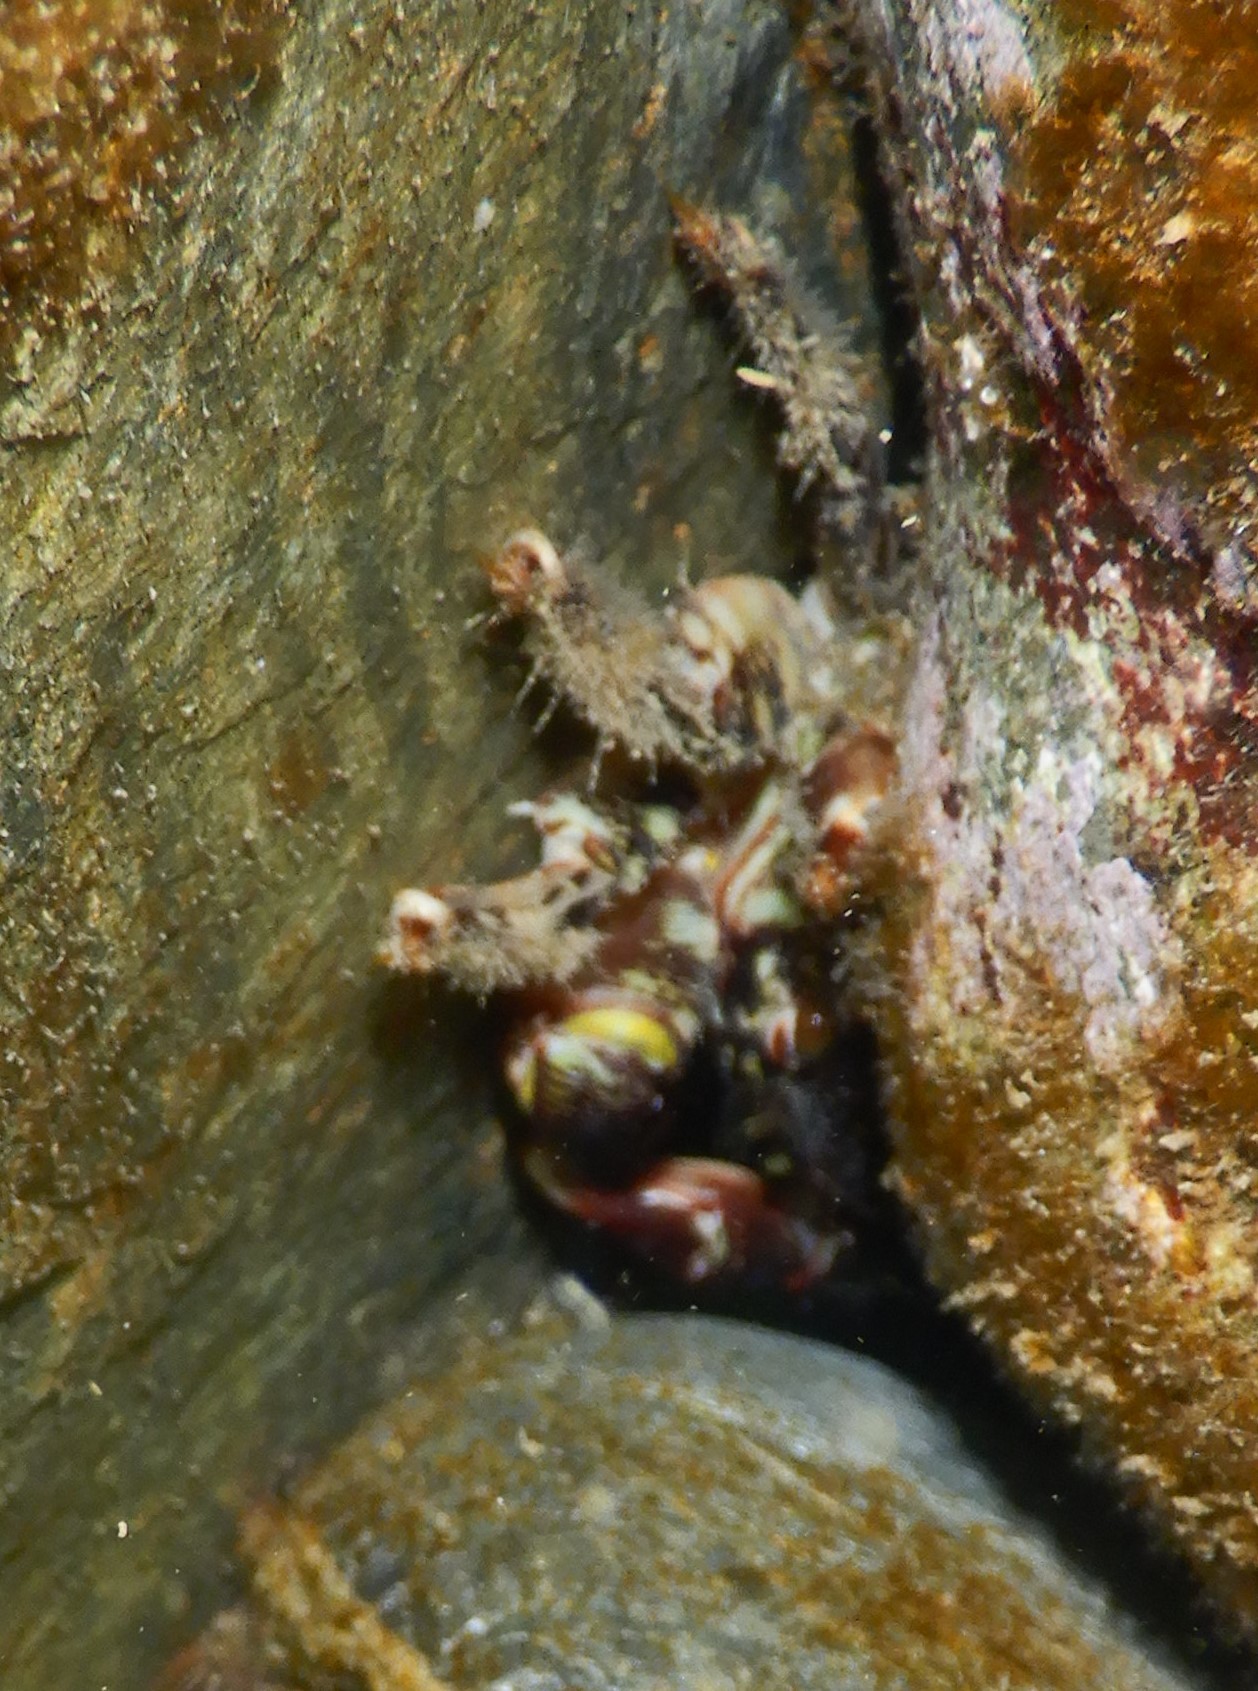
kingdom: Animalia
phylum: Arthropoda
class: Malacostraca
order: Decapoda
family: Grapsidae
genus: Pachygrapsus
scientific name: Pachygrapsus marmoratus
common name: Marbled rock crab
